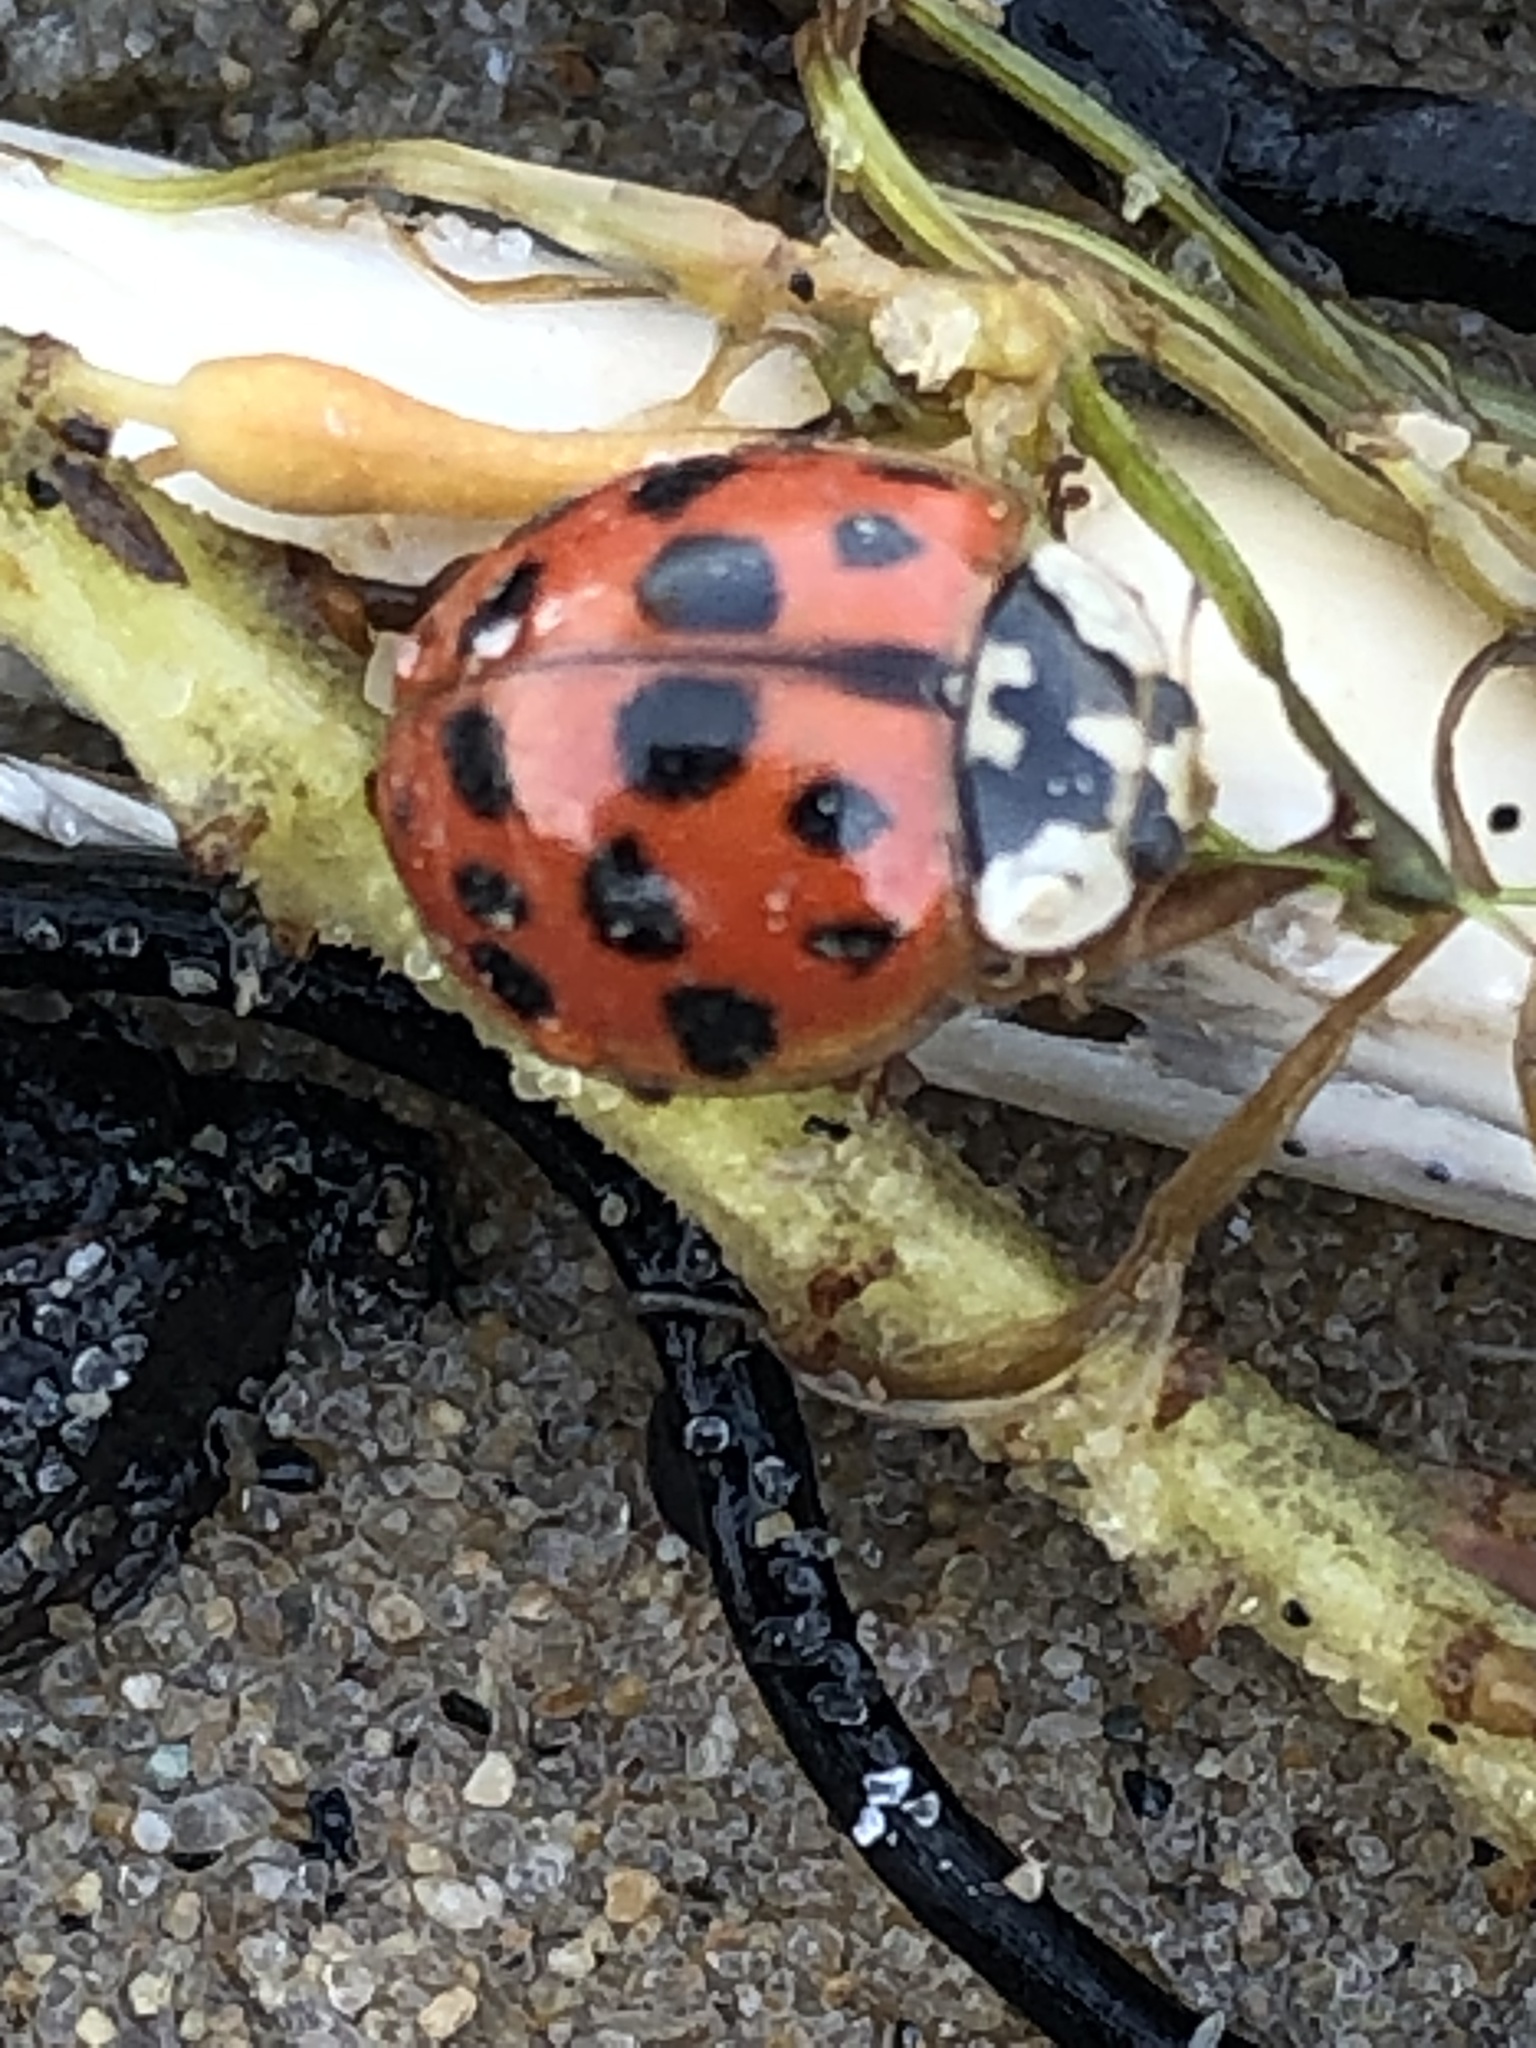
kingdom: Animalia
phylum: Arthropoda
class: Insecta
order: Coleoptera
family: Coccinellidae
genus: Harmonia
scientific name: Harmonia axyridis
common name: Harlequin ladybird
